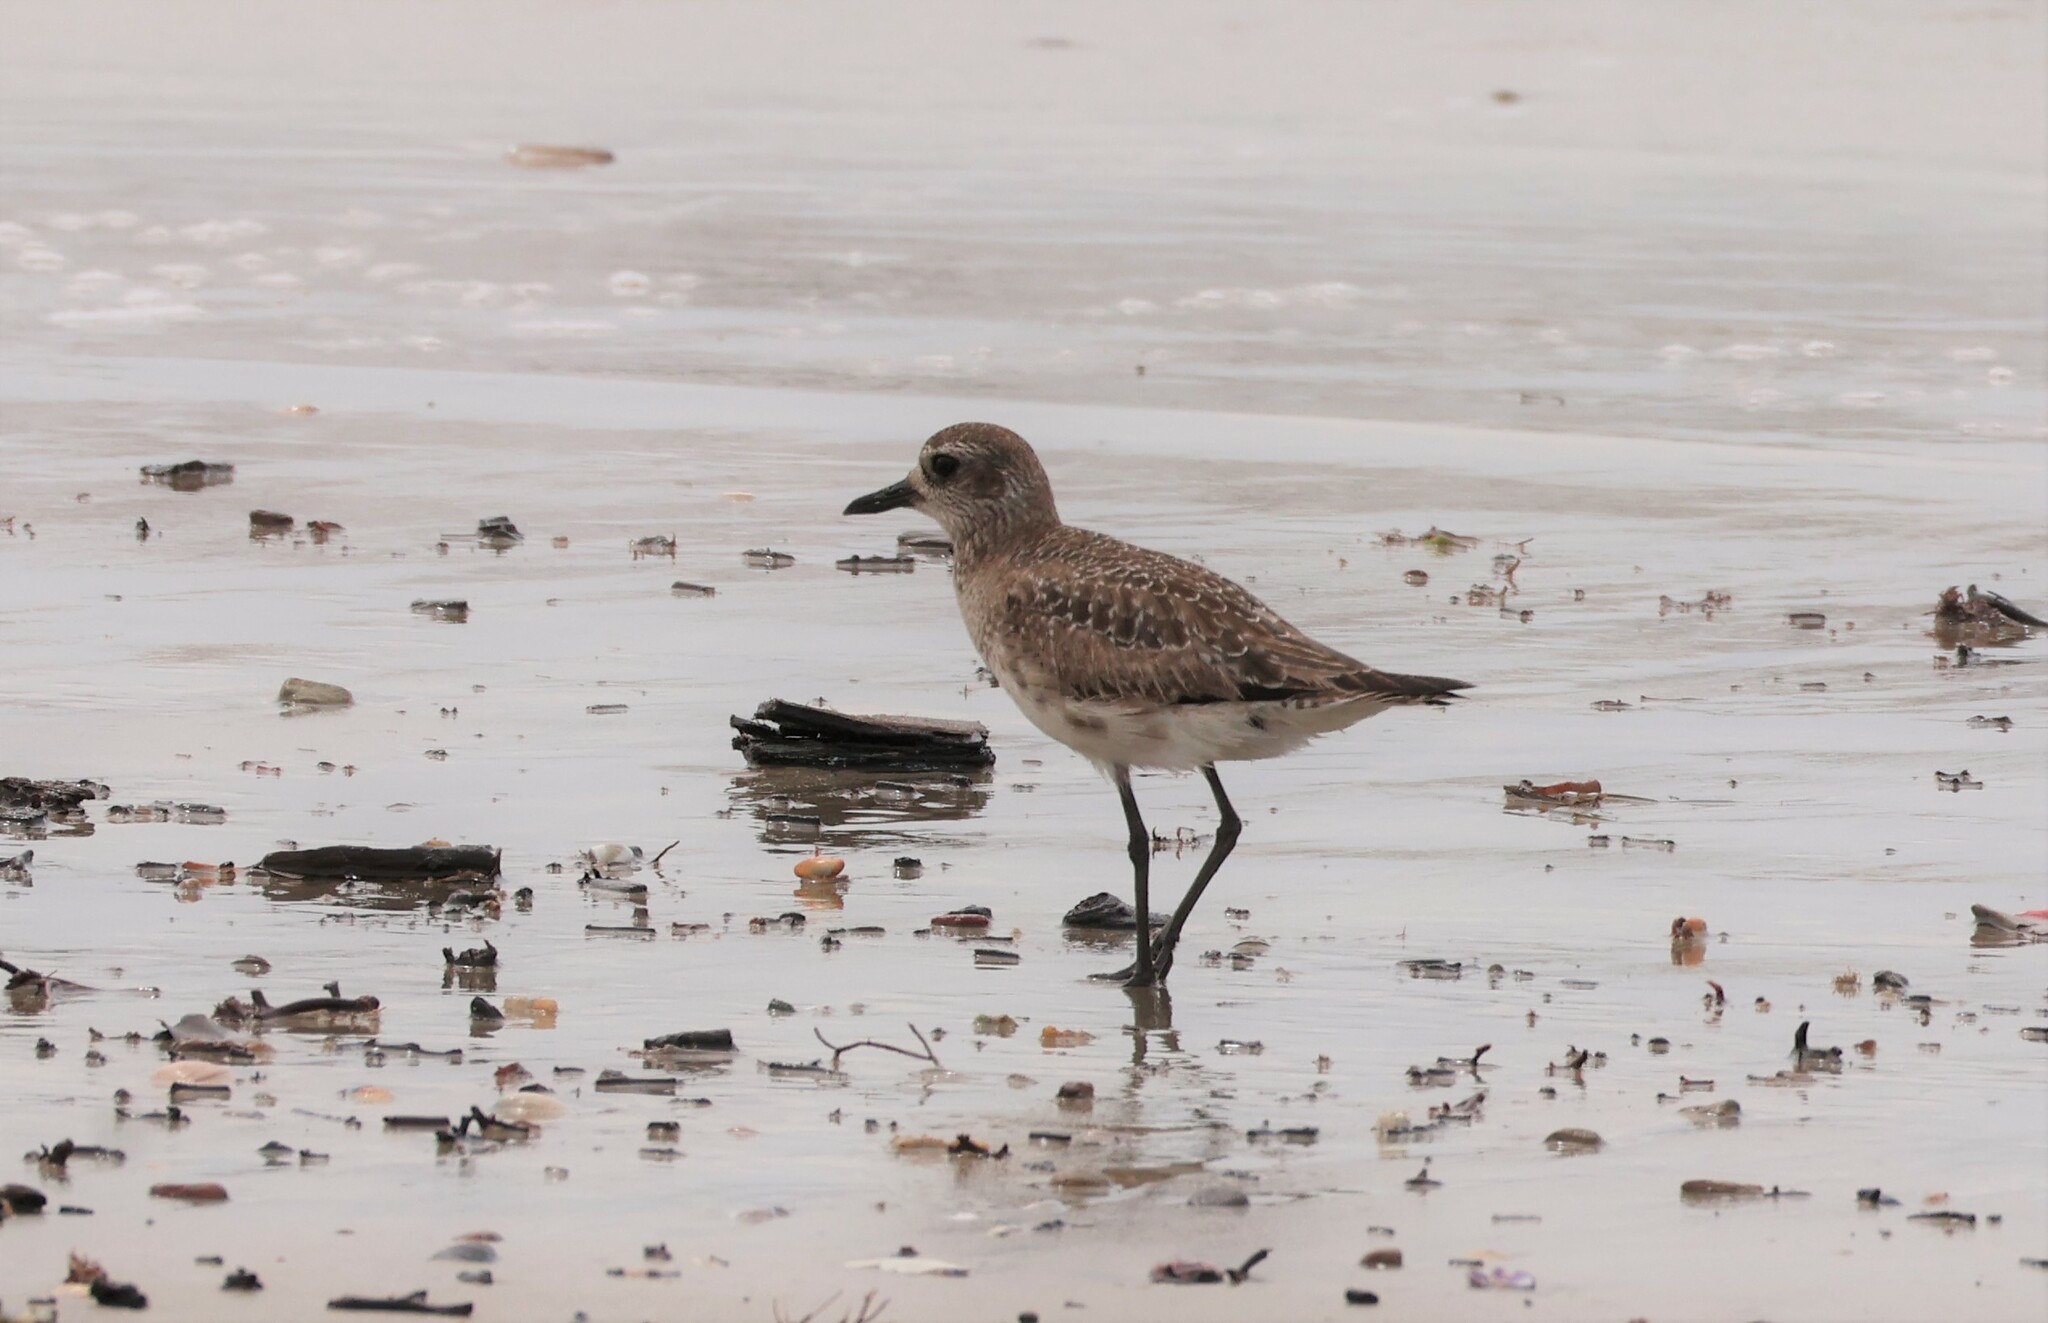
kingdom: Animalia
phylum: Chordata
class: Aves
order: Charadriiformes
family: Charadriidae
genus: Pluvialis
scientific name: Pluvialis squatarola
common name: Grey plover
